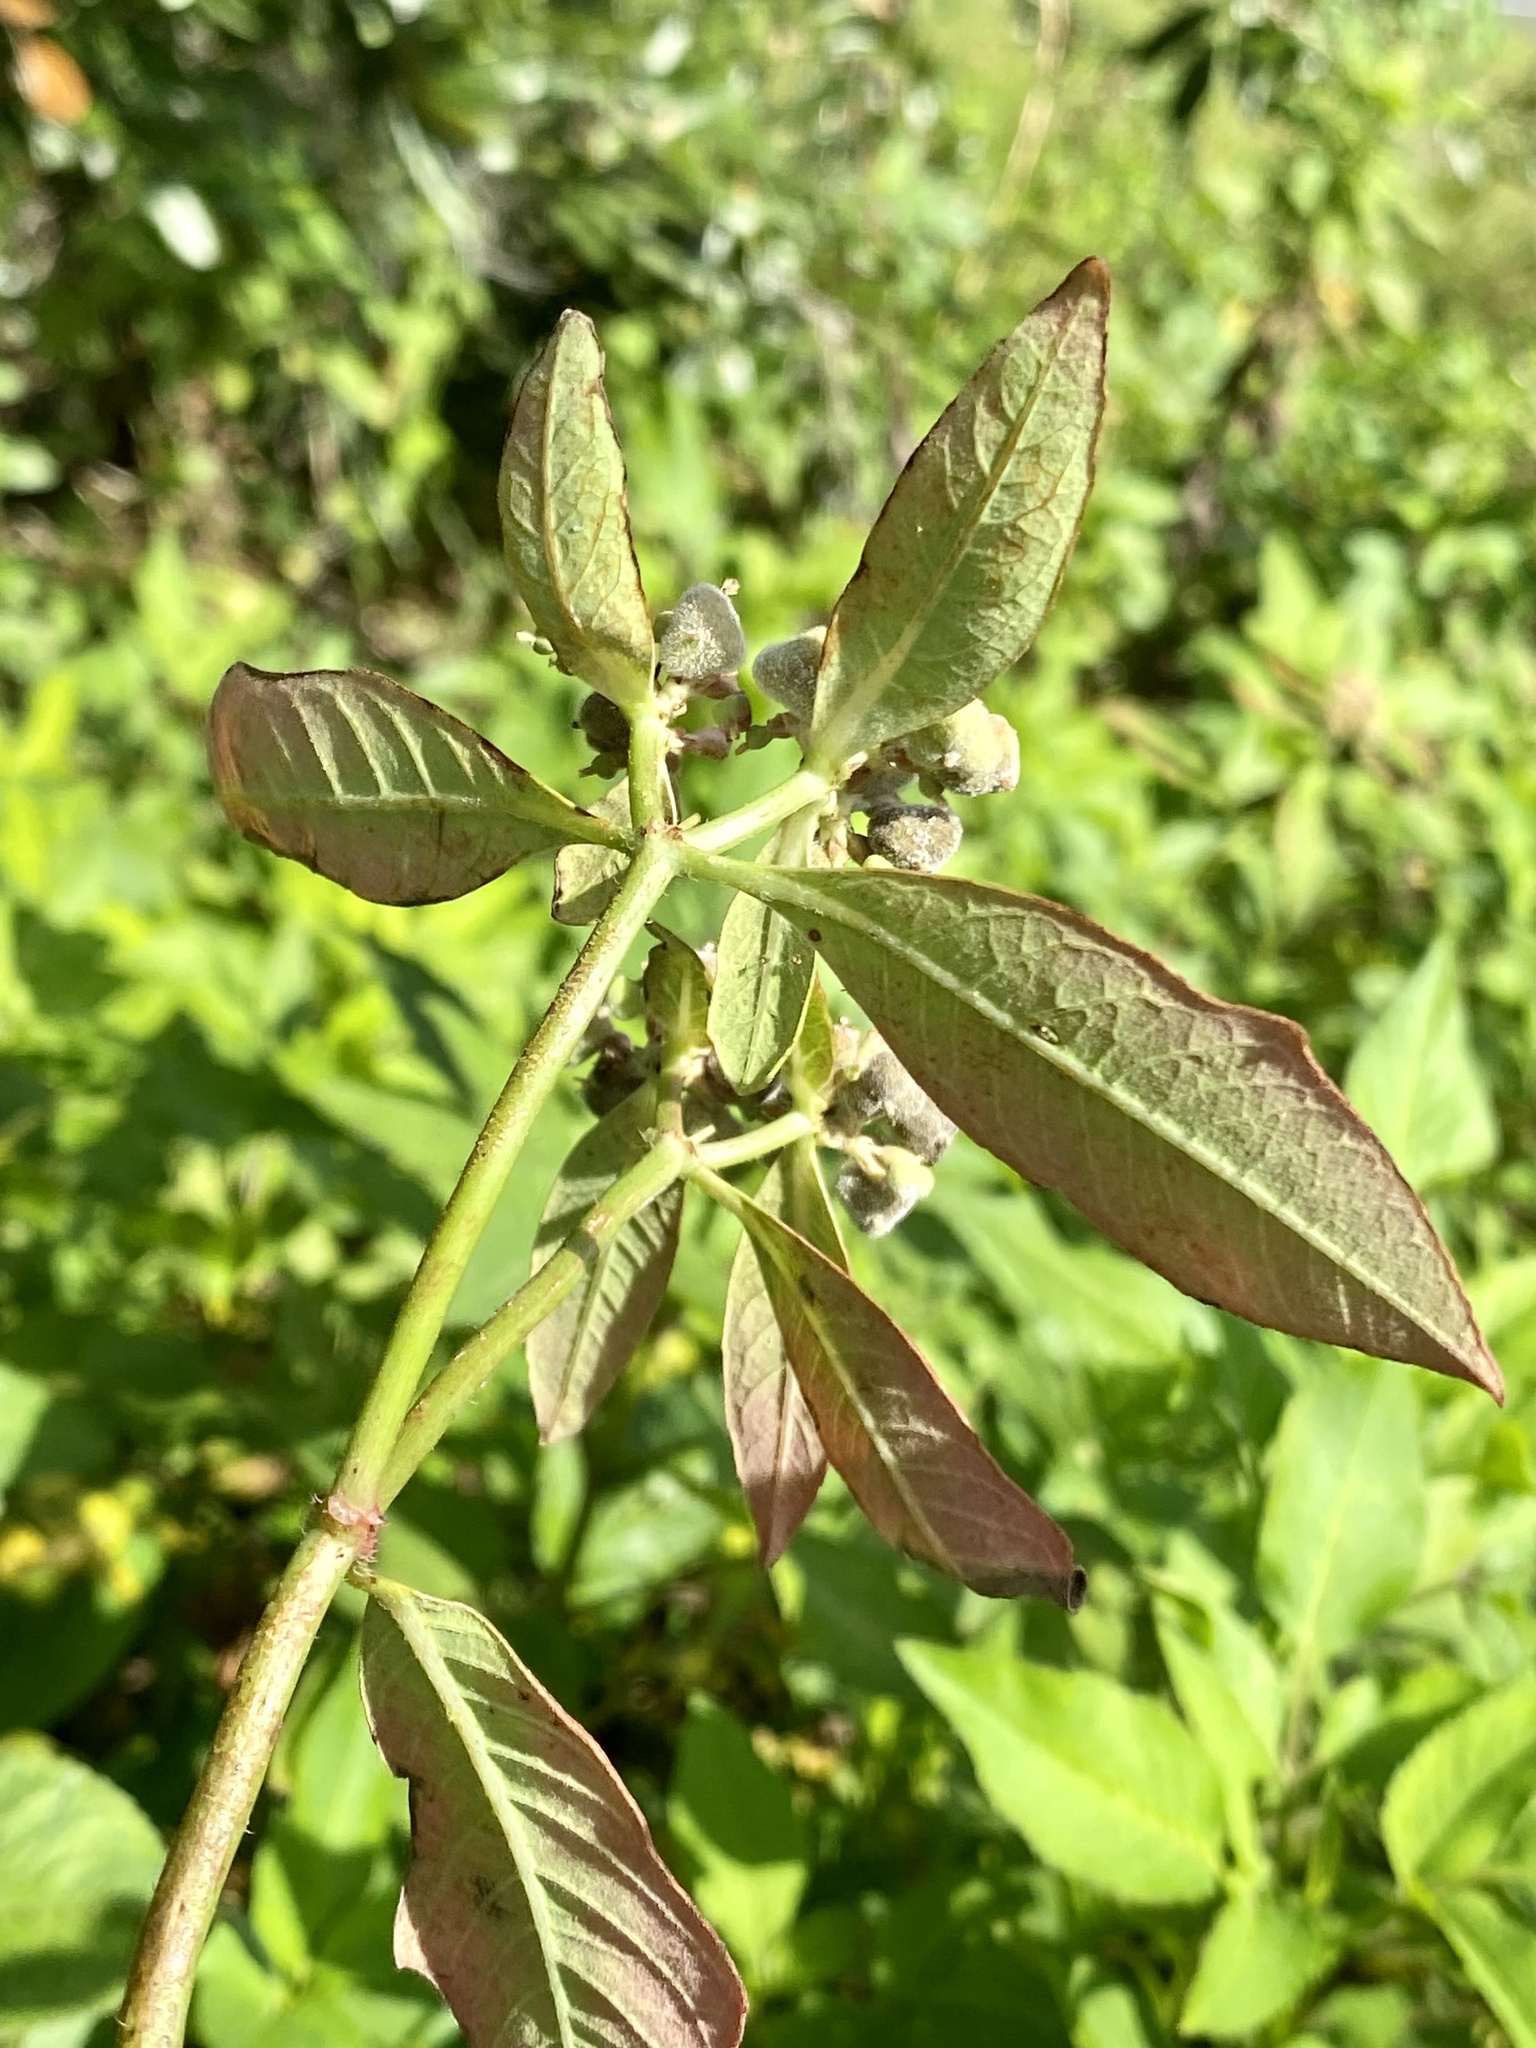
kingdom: Plantae
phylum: Tracheophyta
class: Magnoliopsida
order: Malpighiales
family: Euphorbiaceae
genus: Euphorbia
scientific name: Euphorbia heterophylla
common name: Mexican fireplant
